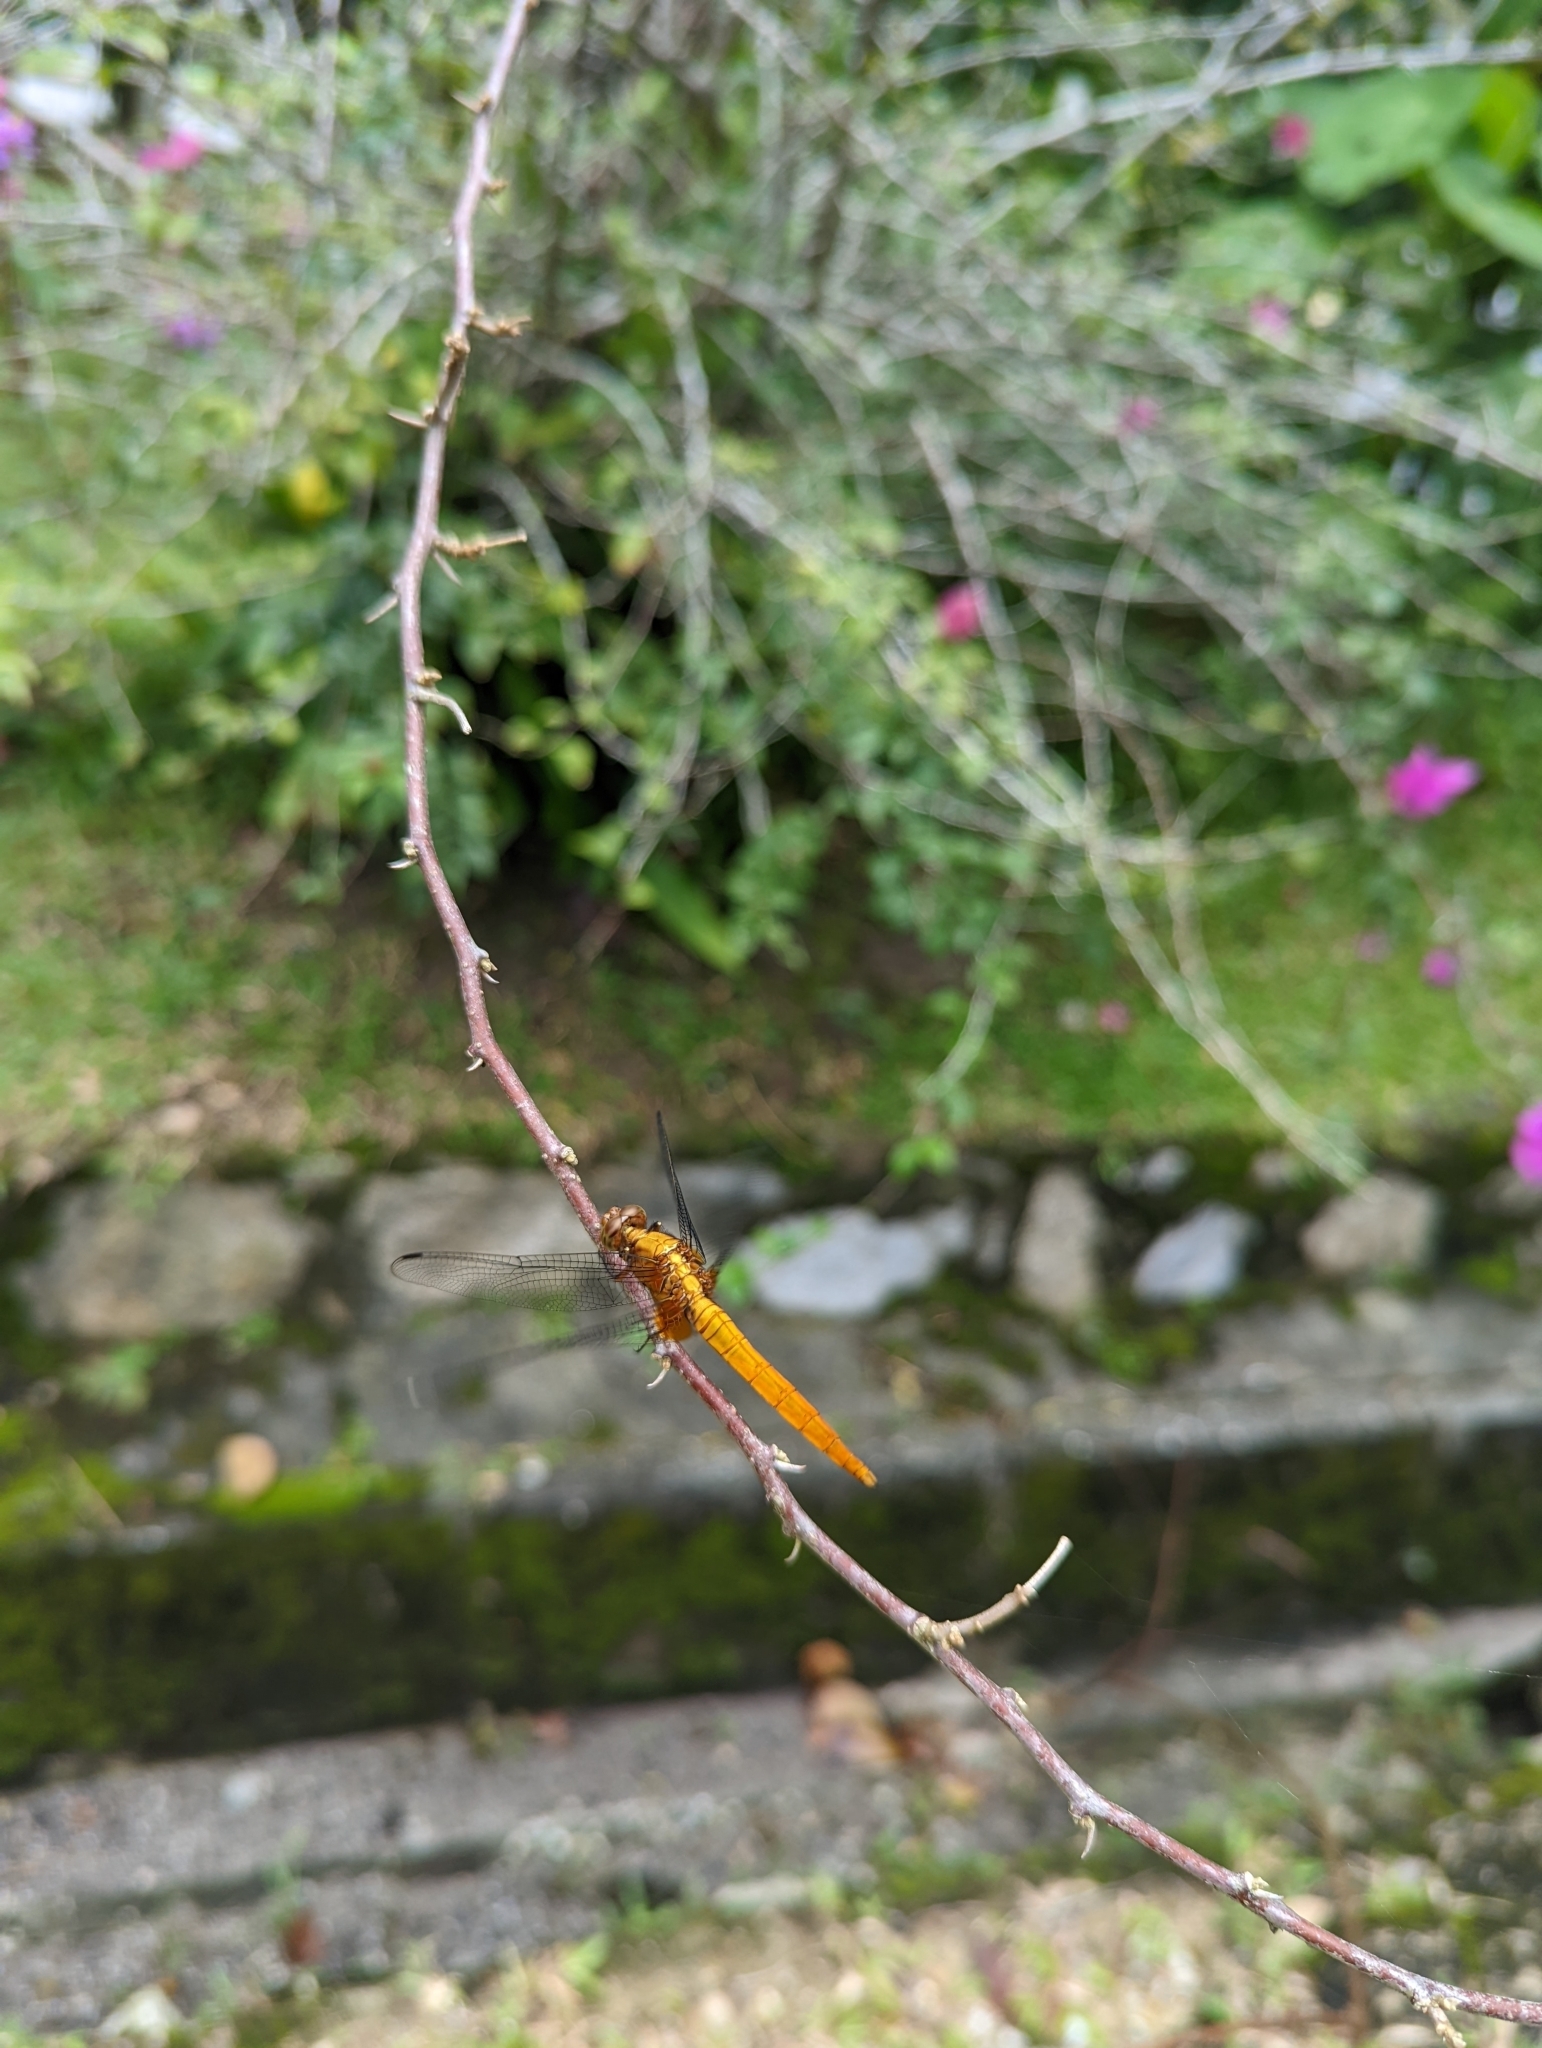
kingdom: Animalia
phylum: Arthropoda
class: Insecta
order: Odonata
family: Libellulidae
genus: Orthetrum
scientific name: Orthetrum testaceum
